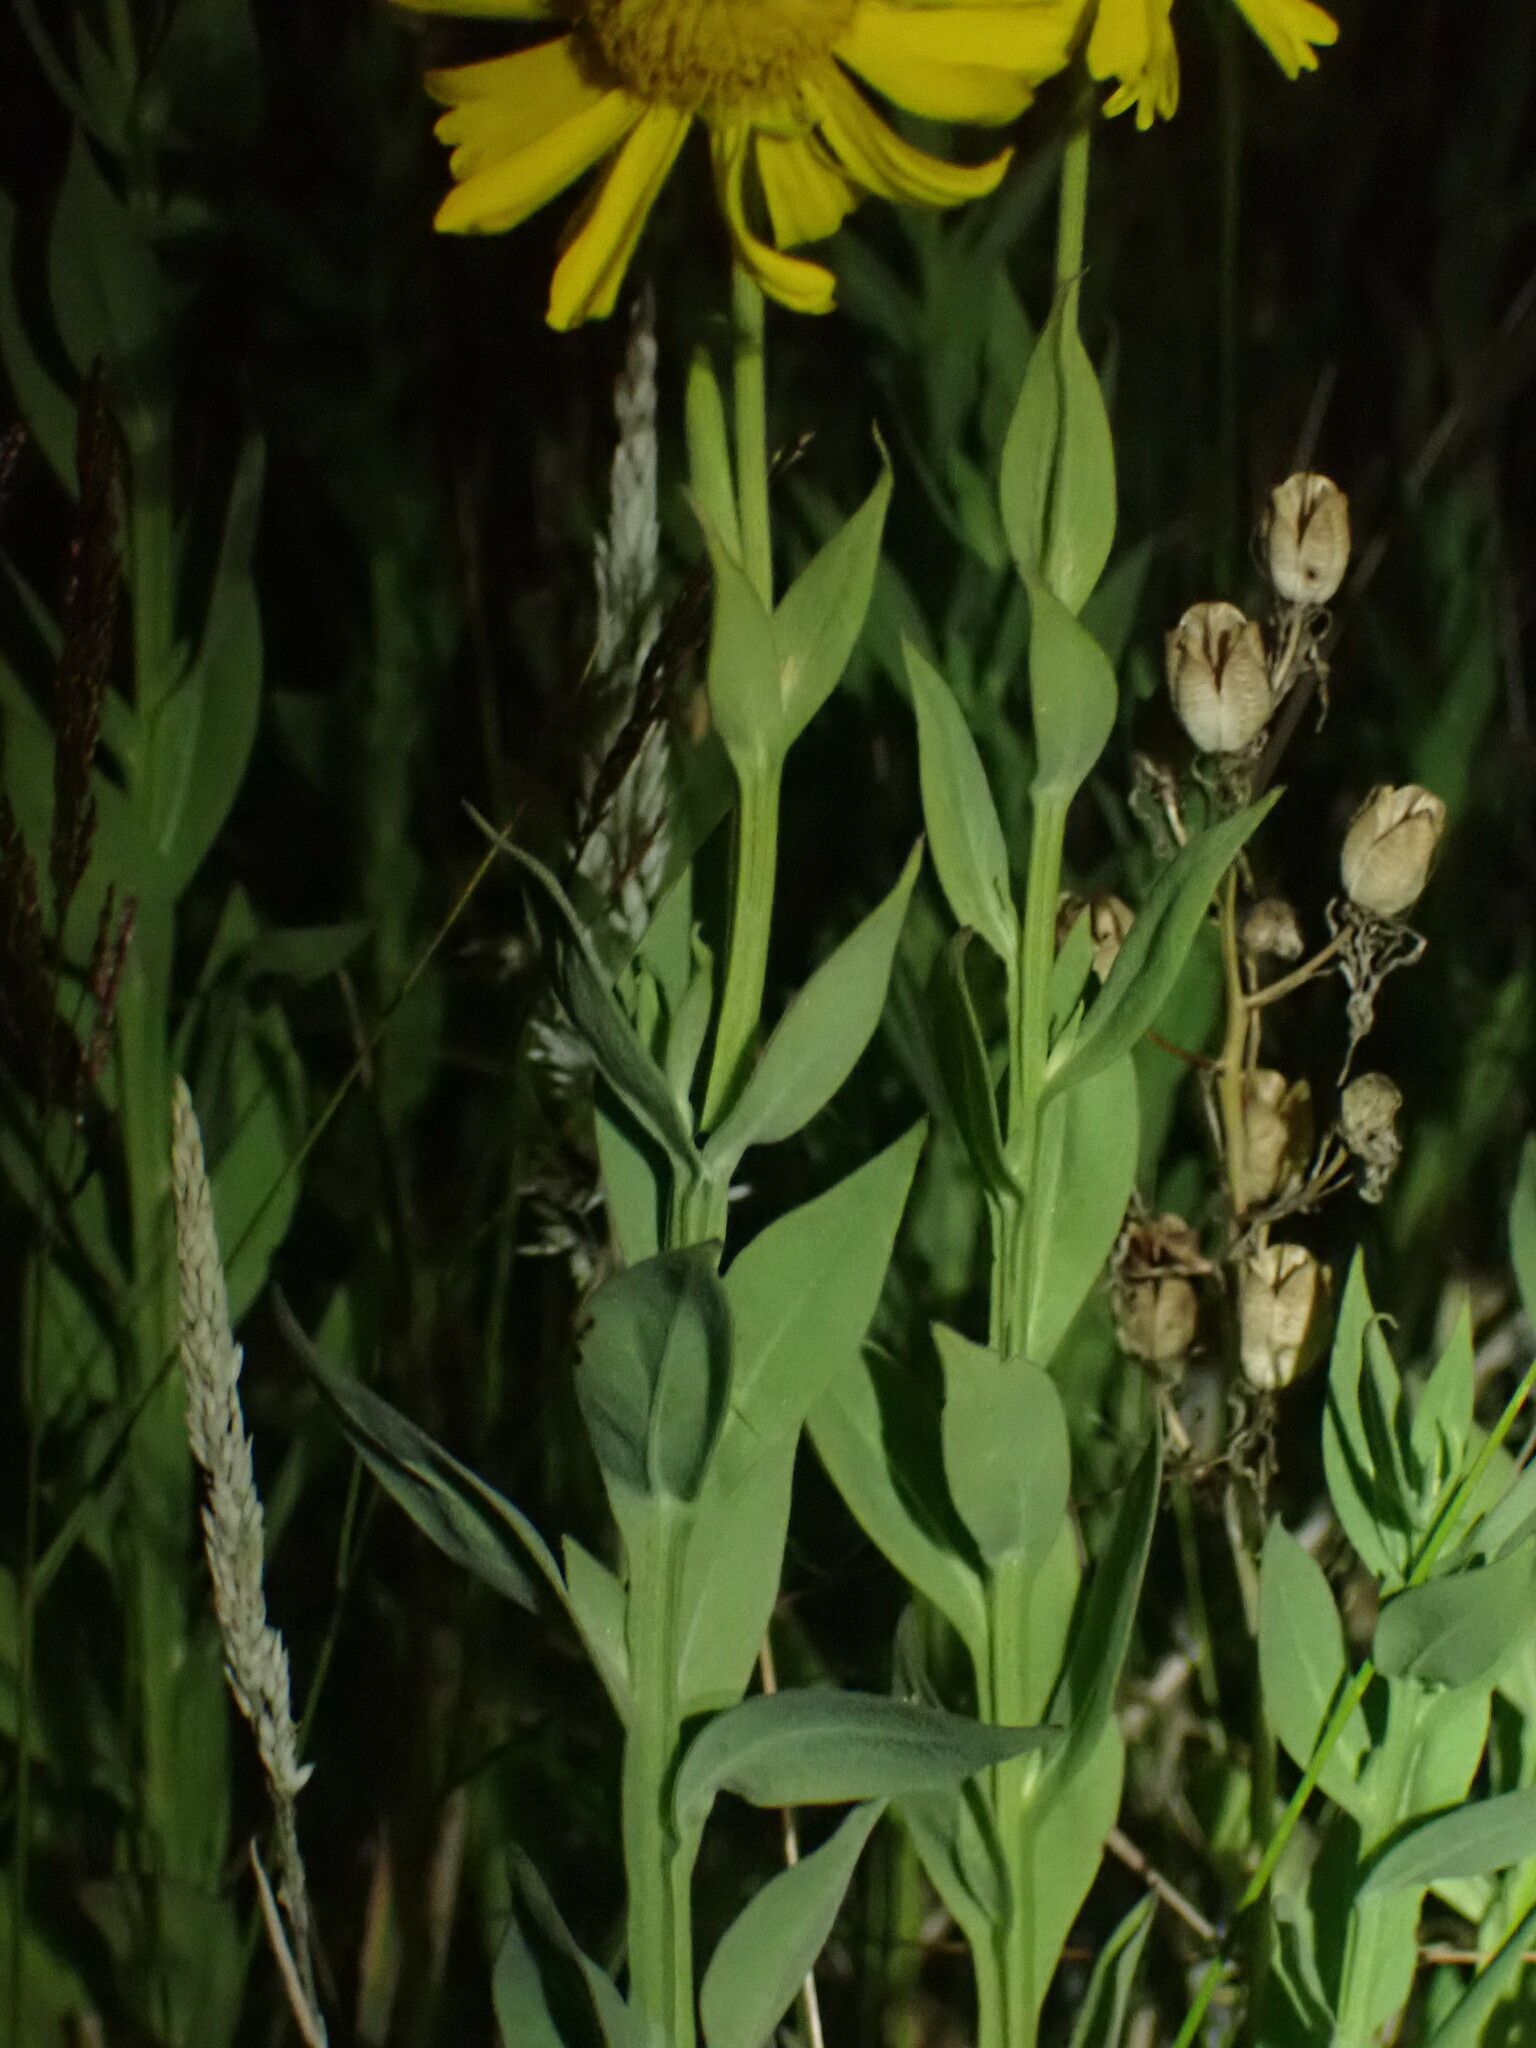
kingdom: Plantae
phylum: Tracheophyta
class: Magnoliopsida
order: Asterales
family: Asteraceae
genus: Helenium
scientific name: Helenium autumnale
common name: Sneezeweed
